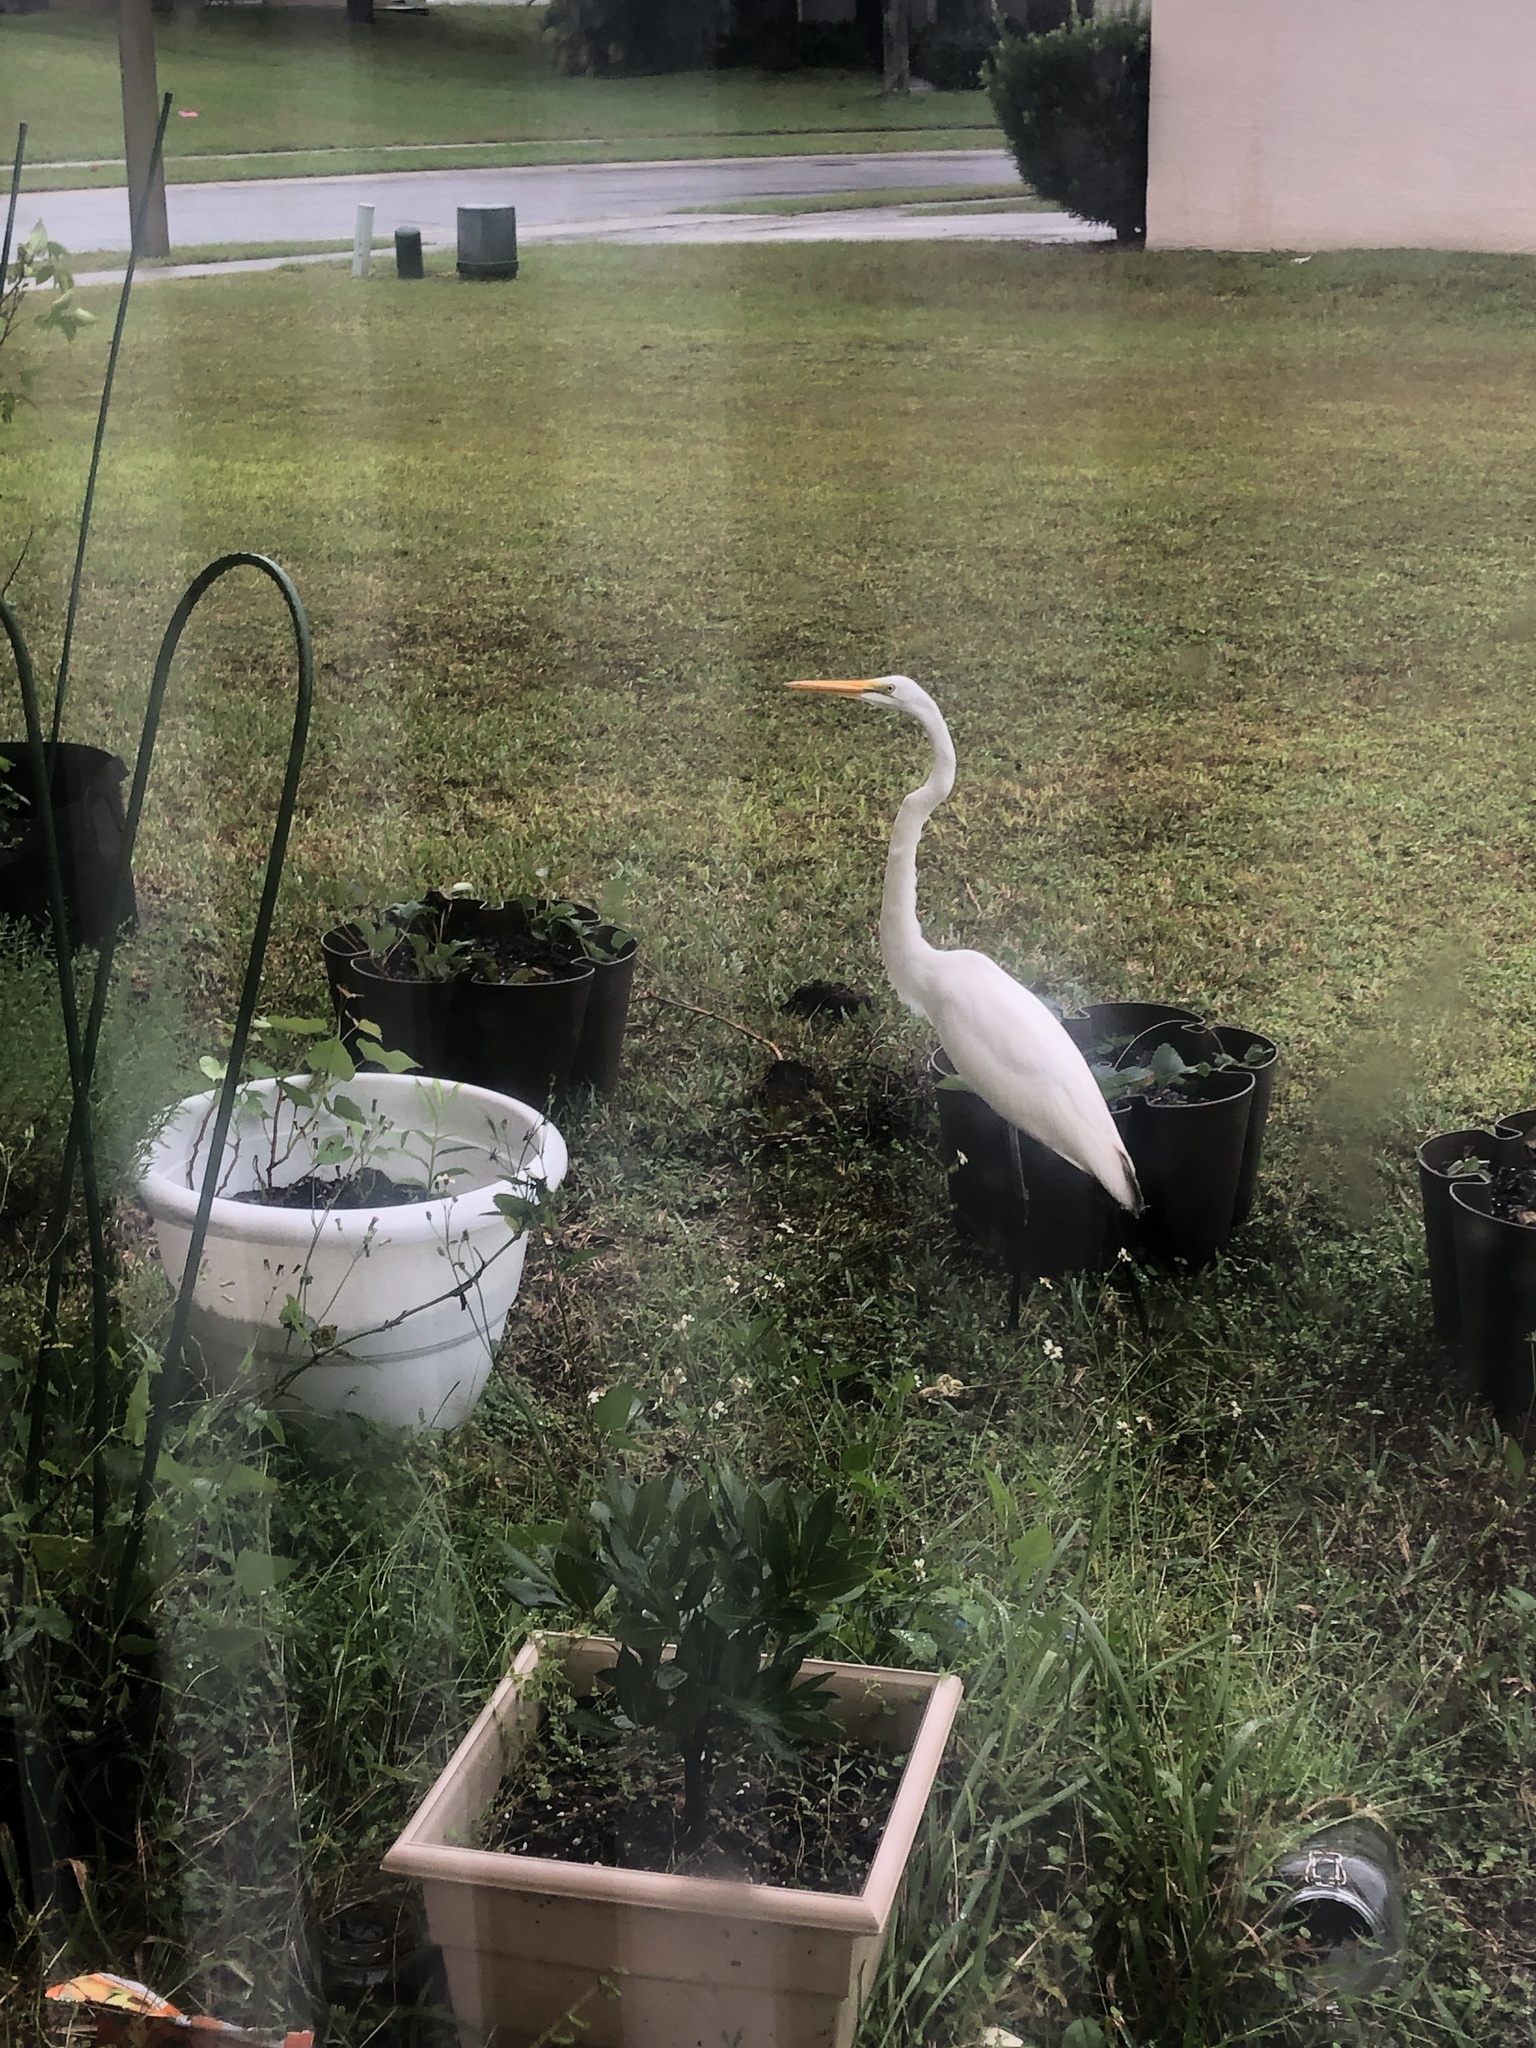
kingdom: Animalia
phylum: Chordata
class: Aves
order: Pelecaniformes
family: Ardeidae
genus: Ardea
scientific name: Ardea alba
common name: Great egret
